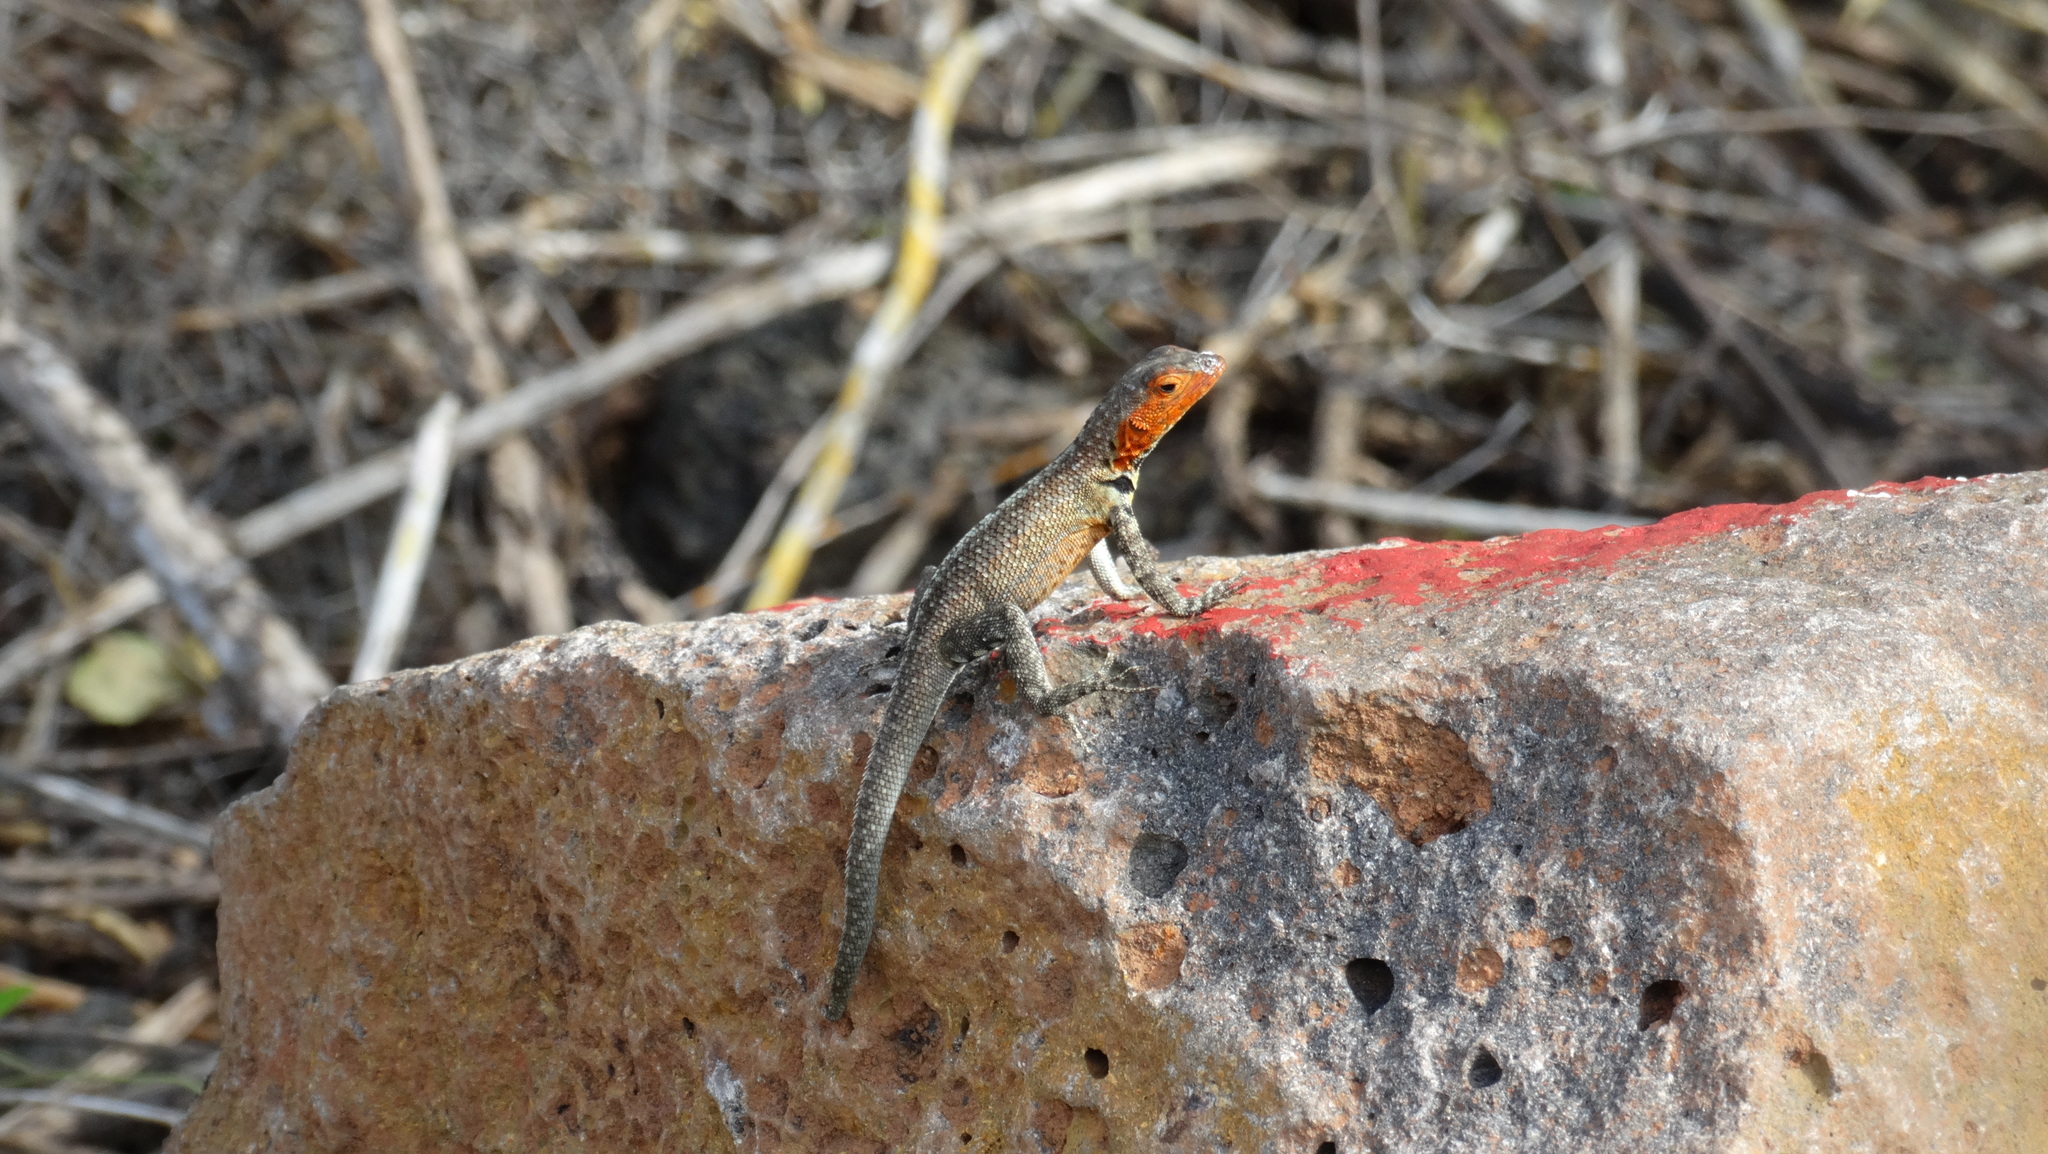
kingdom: Animalia
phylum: Chordata
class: Squamata
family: Tropiduridae
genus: Microlophus
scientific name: Microlophus indefatigabilis
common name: Galapagos lava lizard
